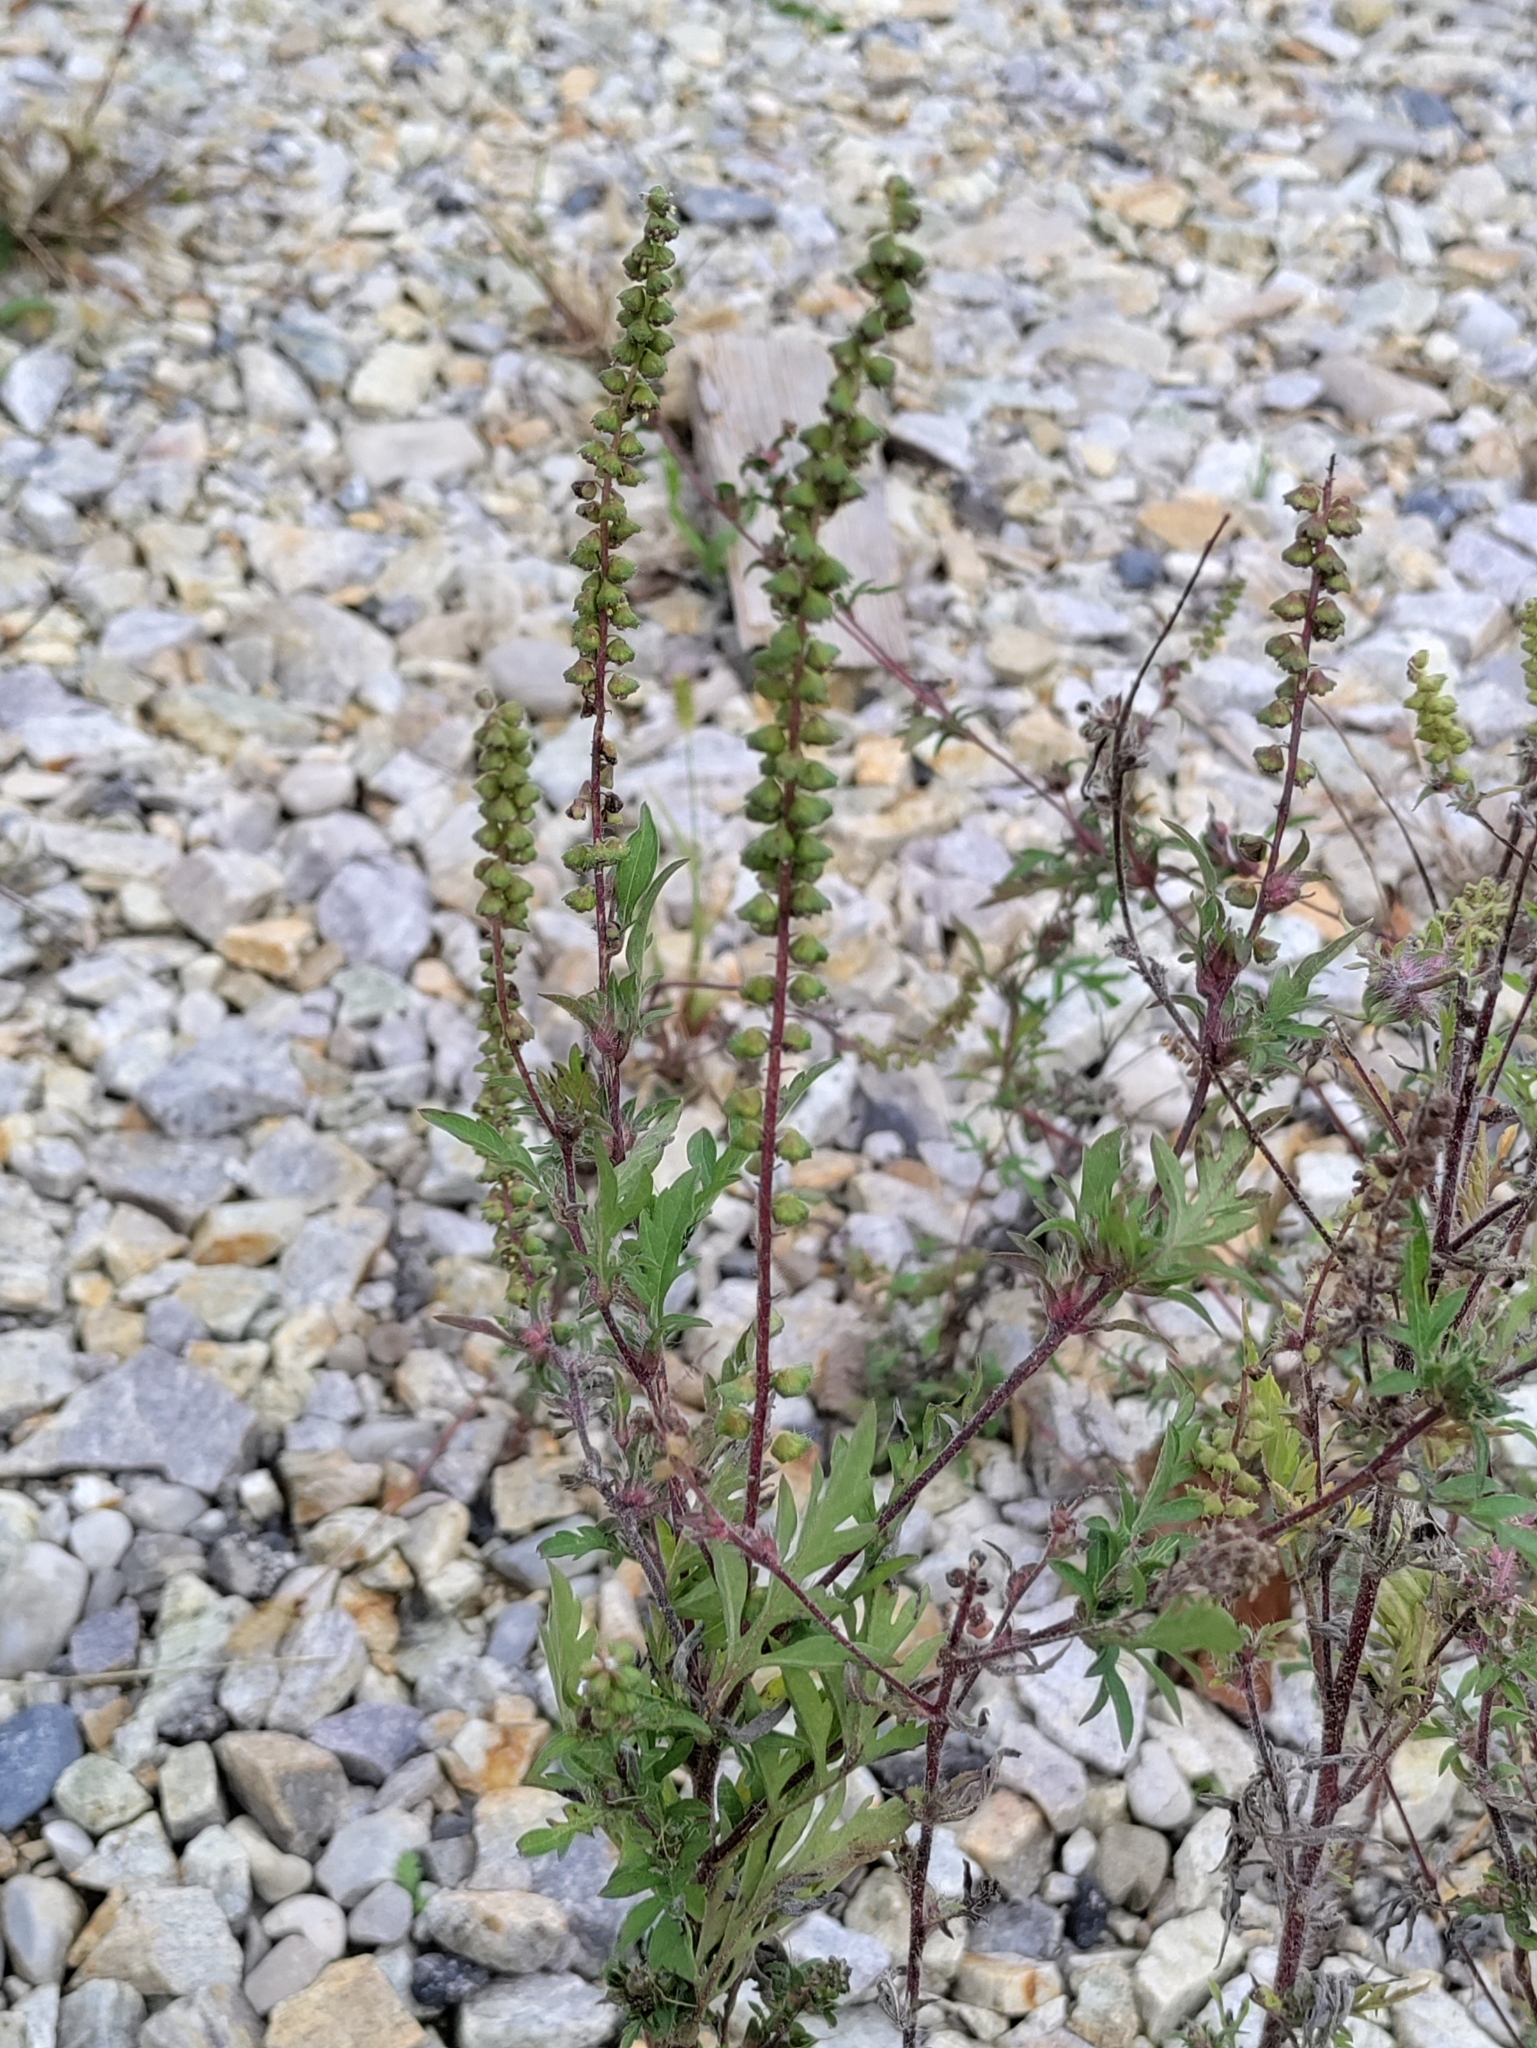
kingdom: Plantae
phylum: Tracheophyta
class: Magnoliopsida
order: Asterales
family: Asteraceae
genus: Ambrosia
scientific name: Ambrosia artemisiifolia
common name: Annual ragweed
